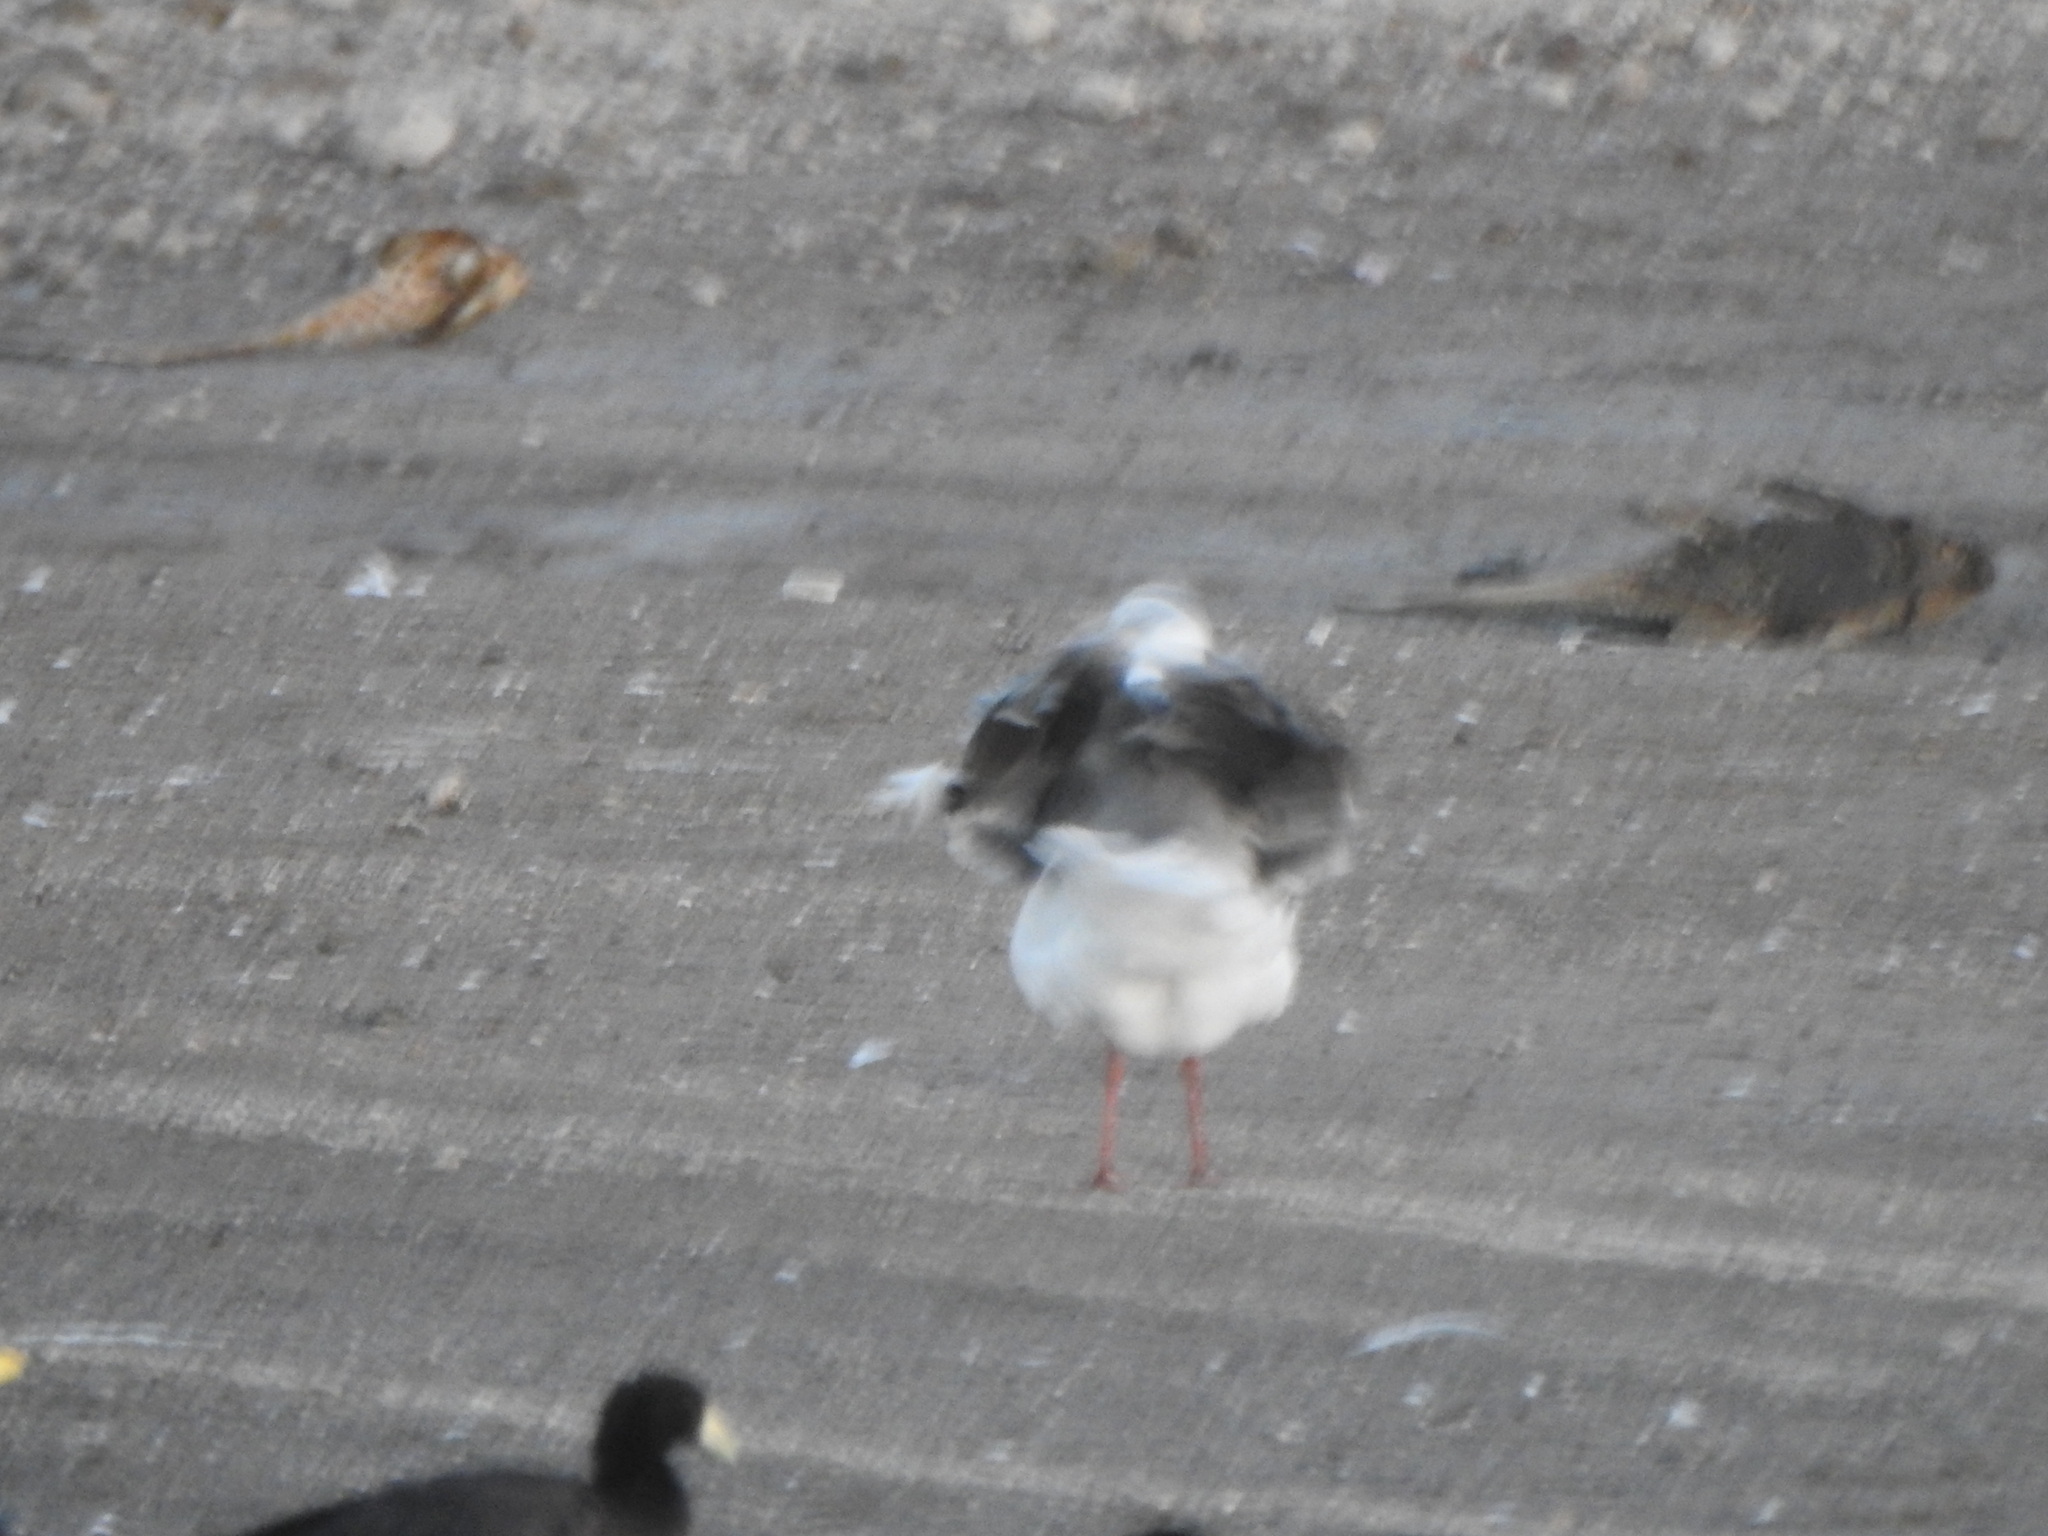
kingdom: Animalia
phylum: Chordata
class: Aves
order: Charadriiformes
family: Laridae
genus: Chroicocephalus
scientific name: Chroicocephalus cirrocephalus
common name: Grey-headed gull
